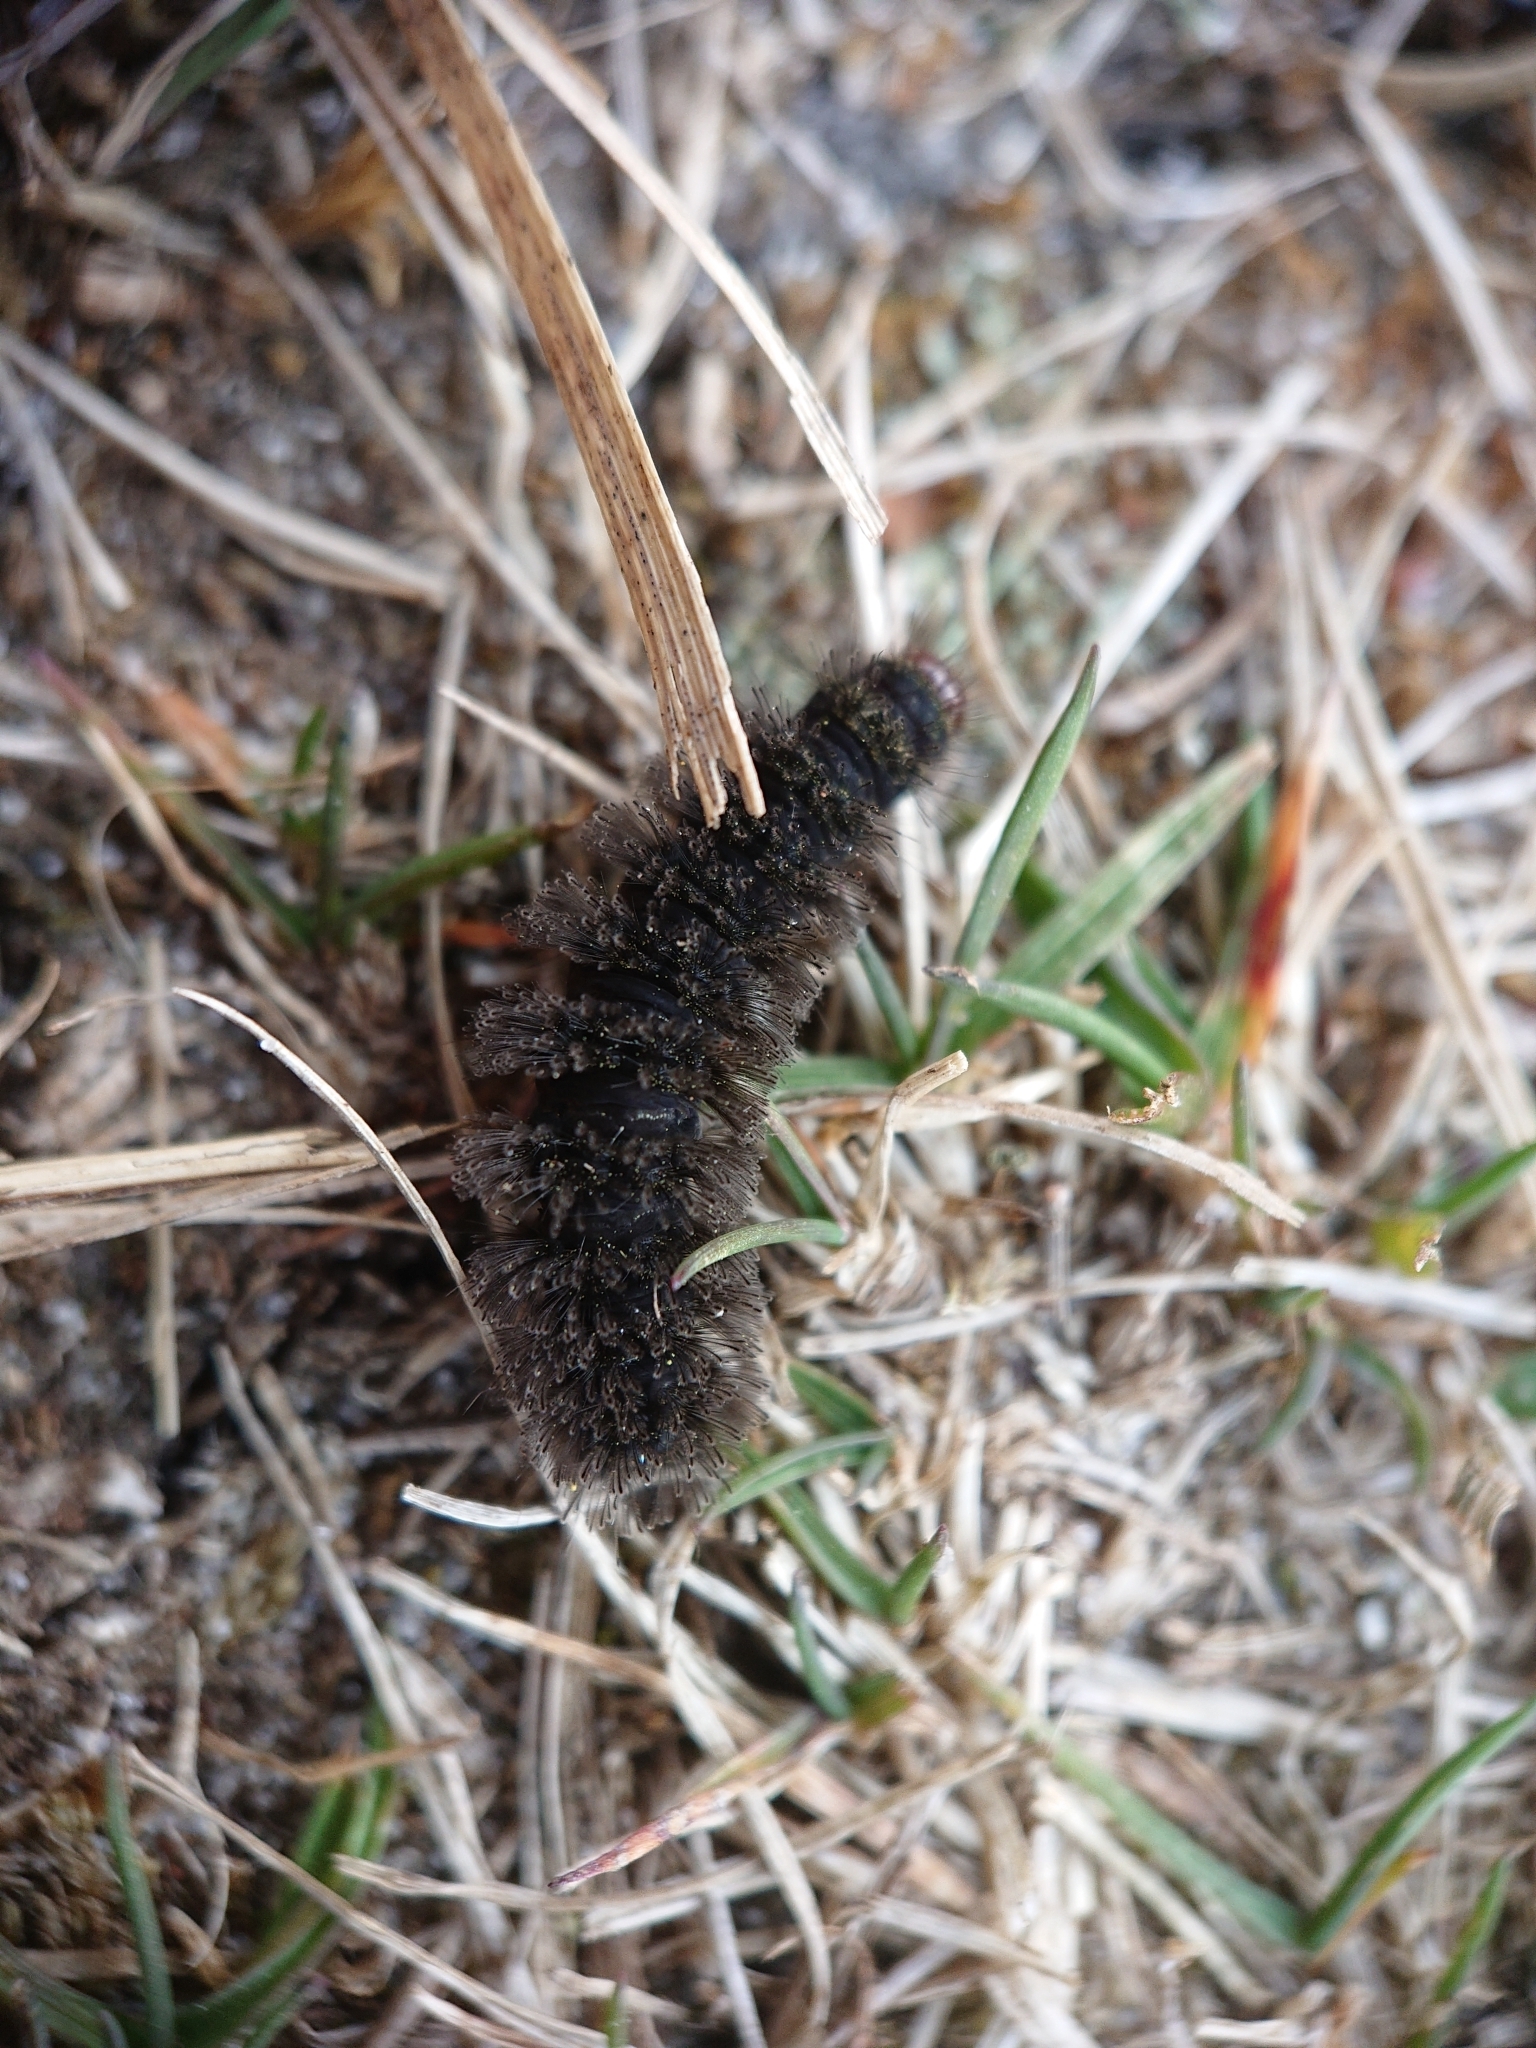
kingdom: Animalia
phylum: Arthropoda
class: Insecta
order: Lepidoptera
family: Nymphalidae
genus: Melitaea
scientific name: Melitaea cinxia
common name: Glanville fritillary
